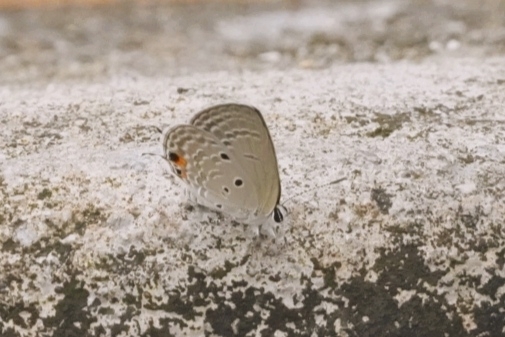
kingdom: Animalia
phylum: Arthropoda
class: Insecta
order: Lepidoptera
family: Lycaenidae
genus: Luthrodes
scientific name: Luthrodes pandava
